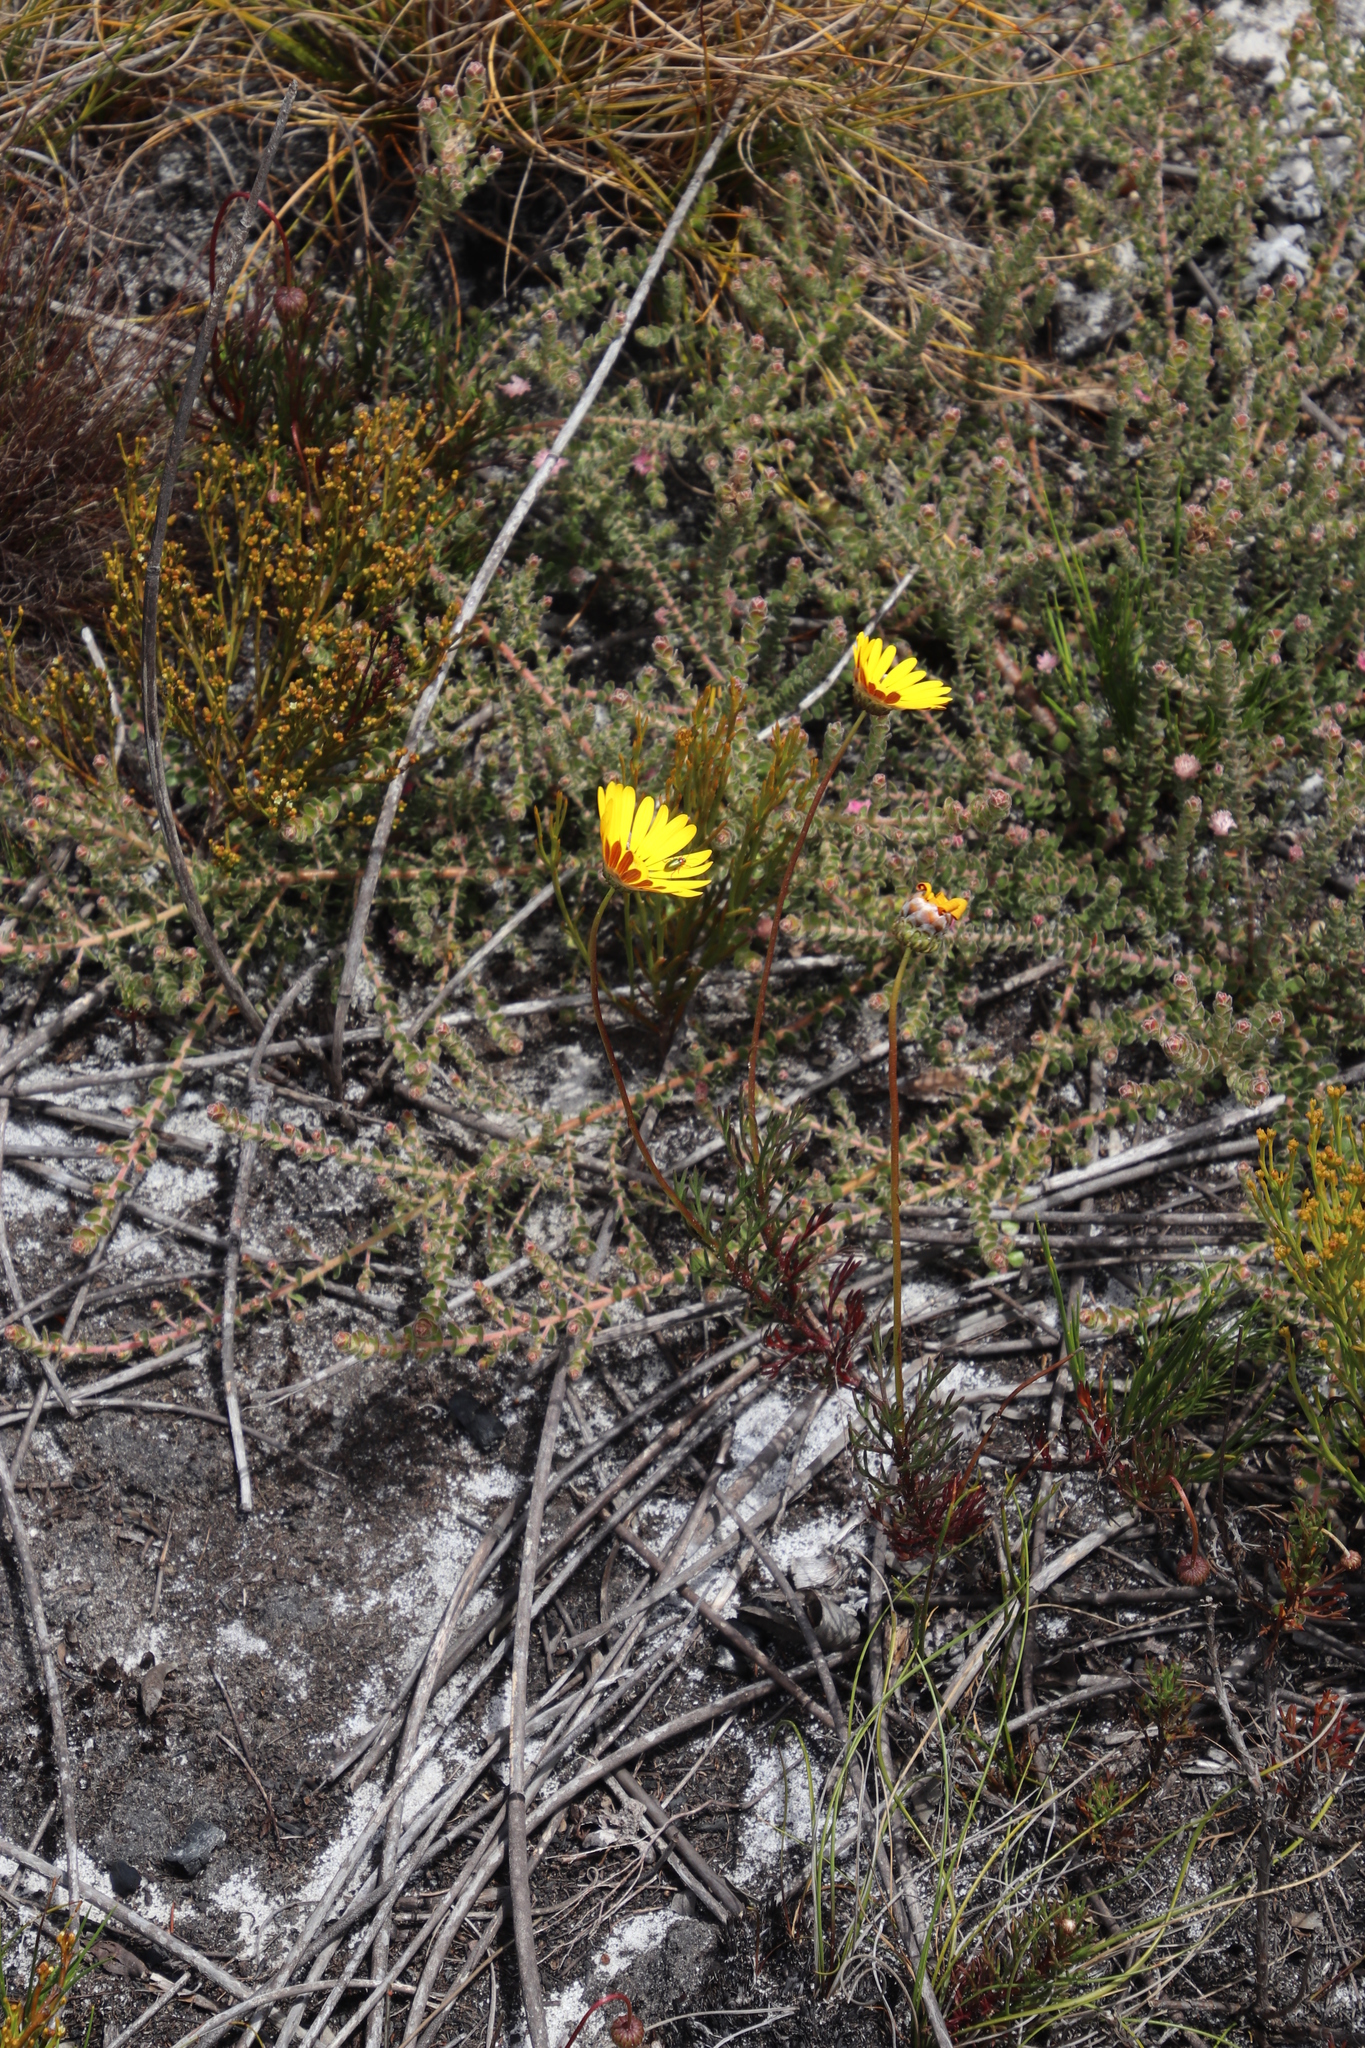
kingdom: Plantae
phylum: Tracheophyta
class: Magnoliopsida
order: Asterales
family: Asteraceae
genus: Ursinia
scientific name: Ursinia paleacea
